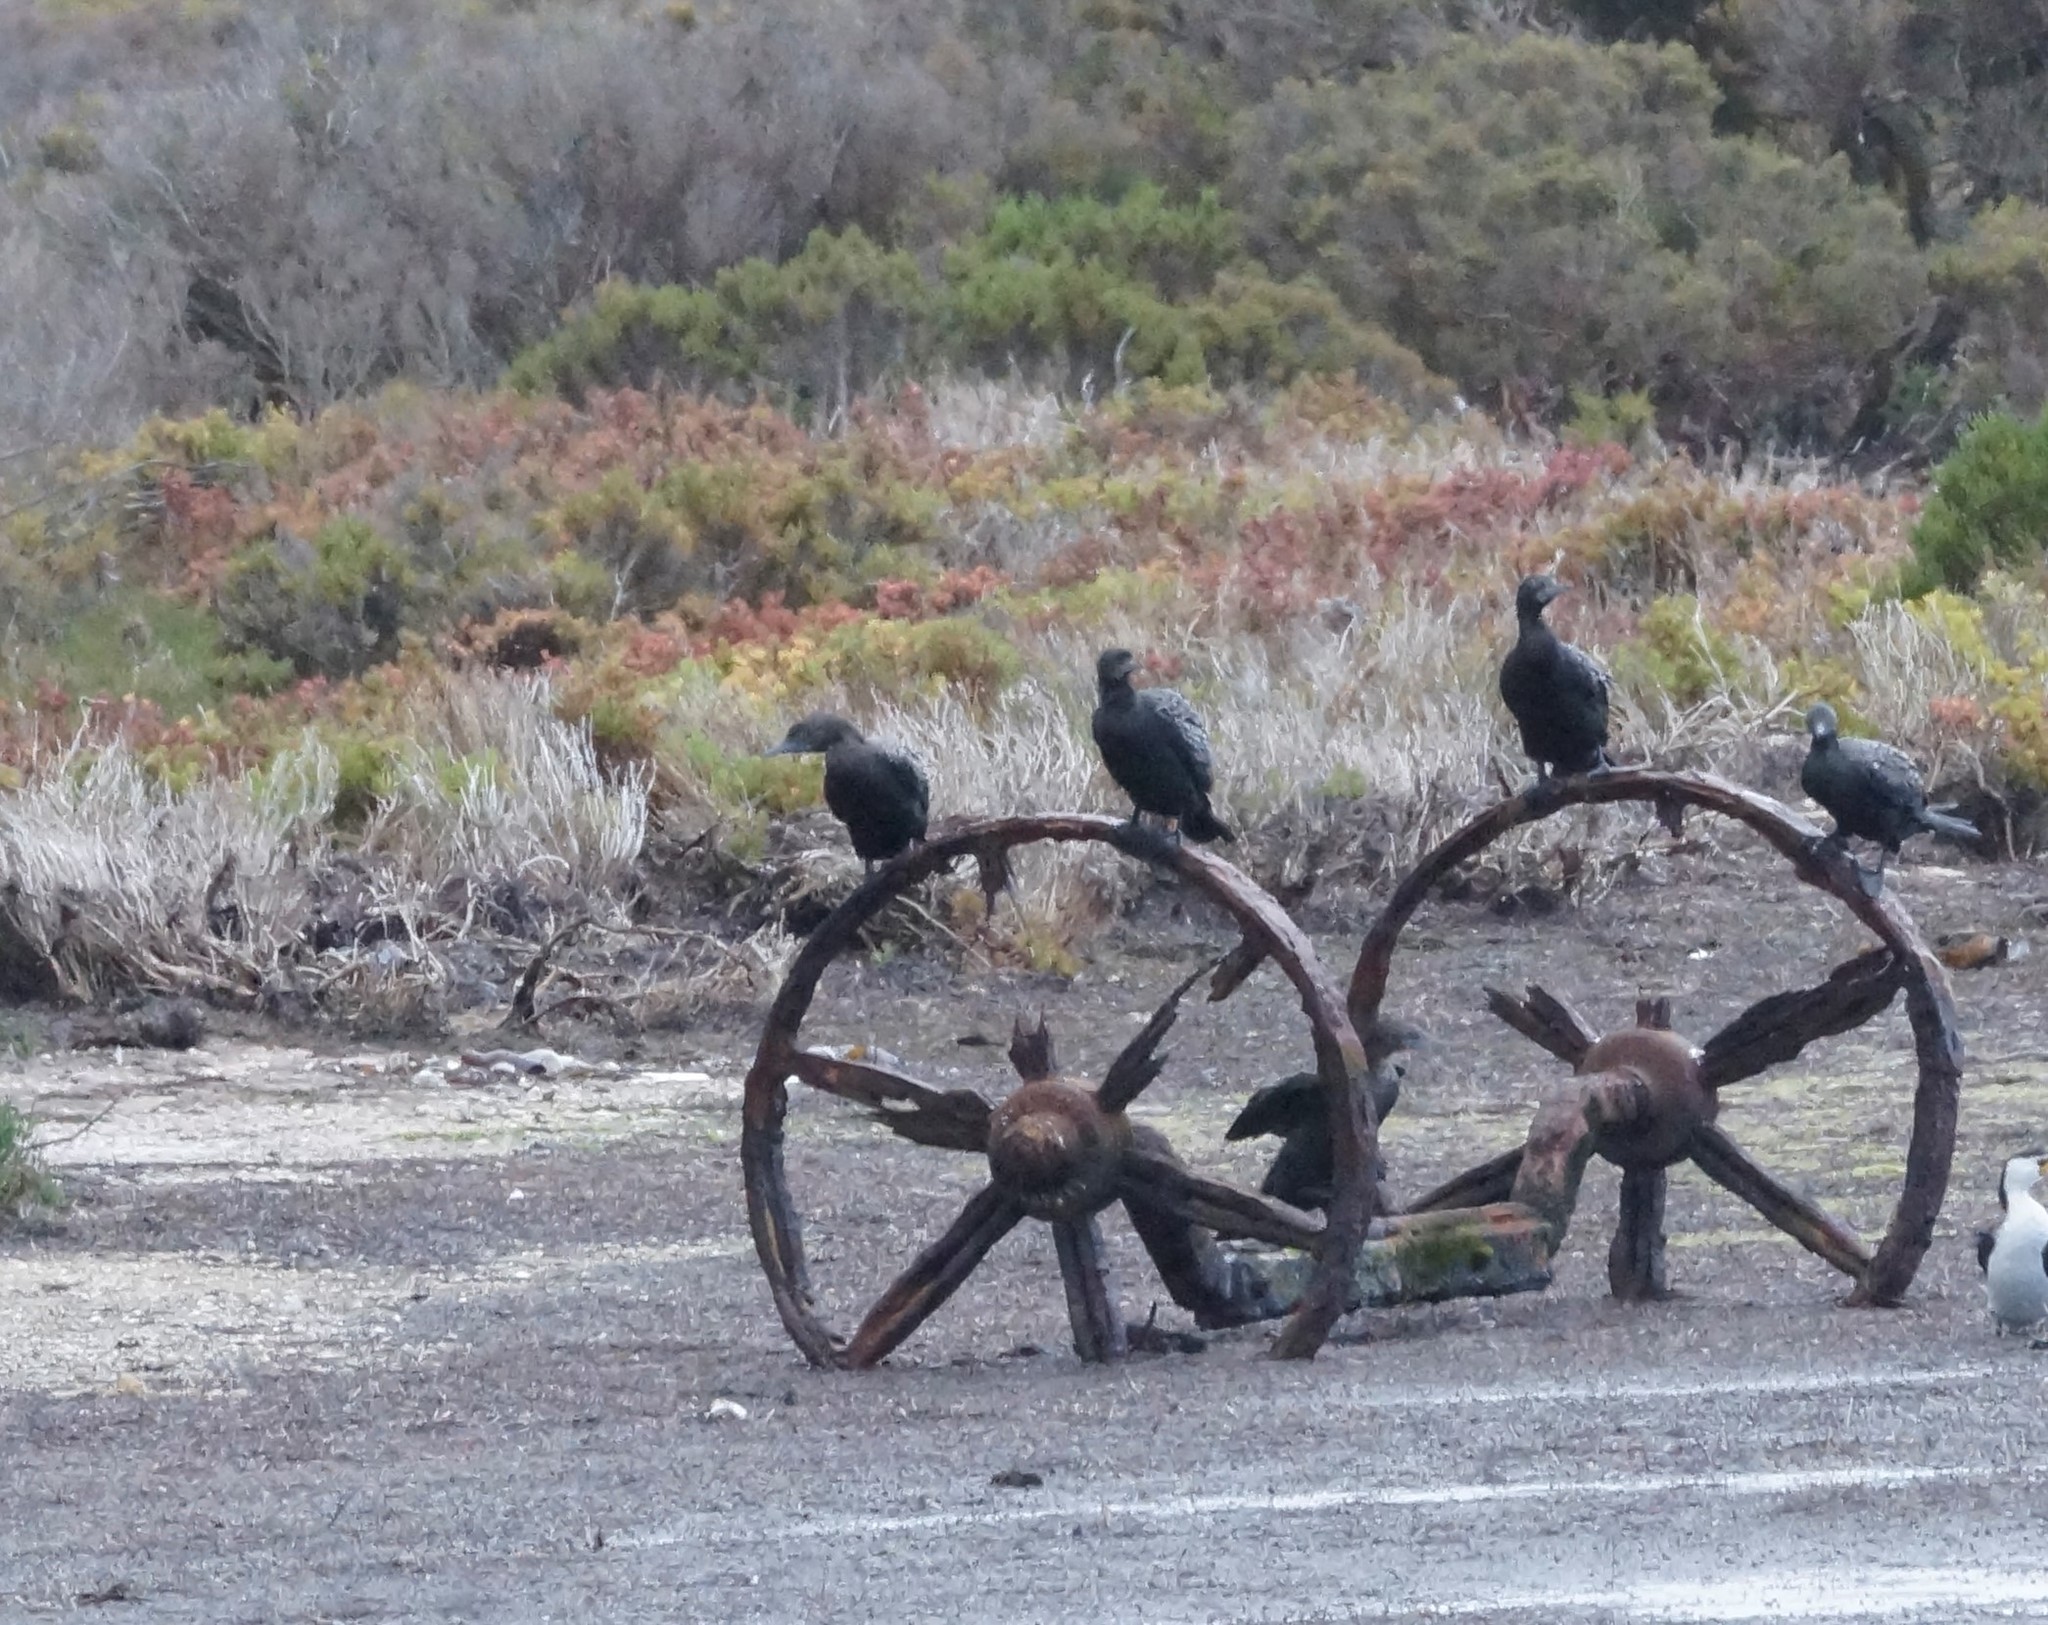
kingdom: Animalia
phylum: Chordata
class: Aves
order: Suliformes
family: Phalacrocoracidae
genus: Phalacrocorax
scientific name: Phalacrocorax sulcirostris
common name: Little black cormorant
